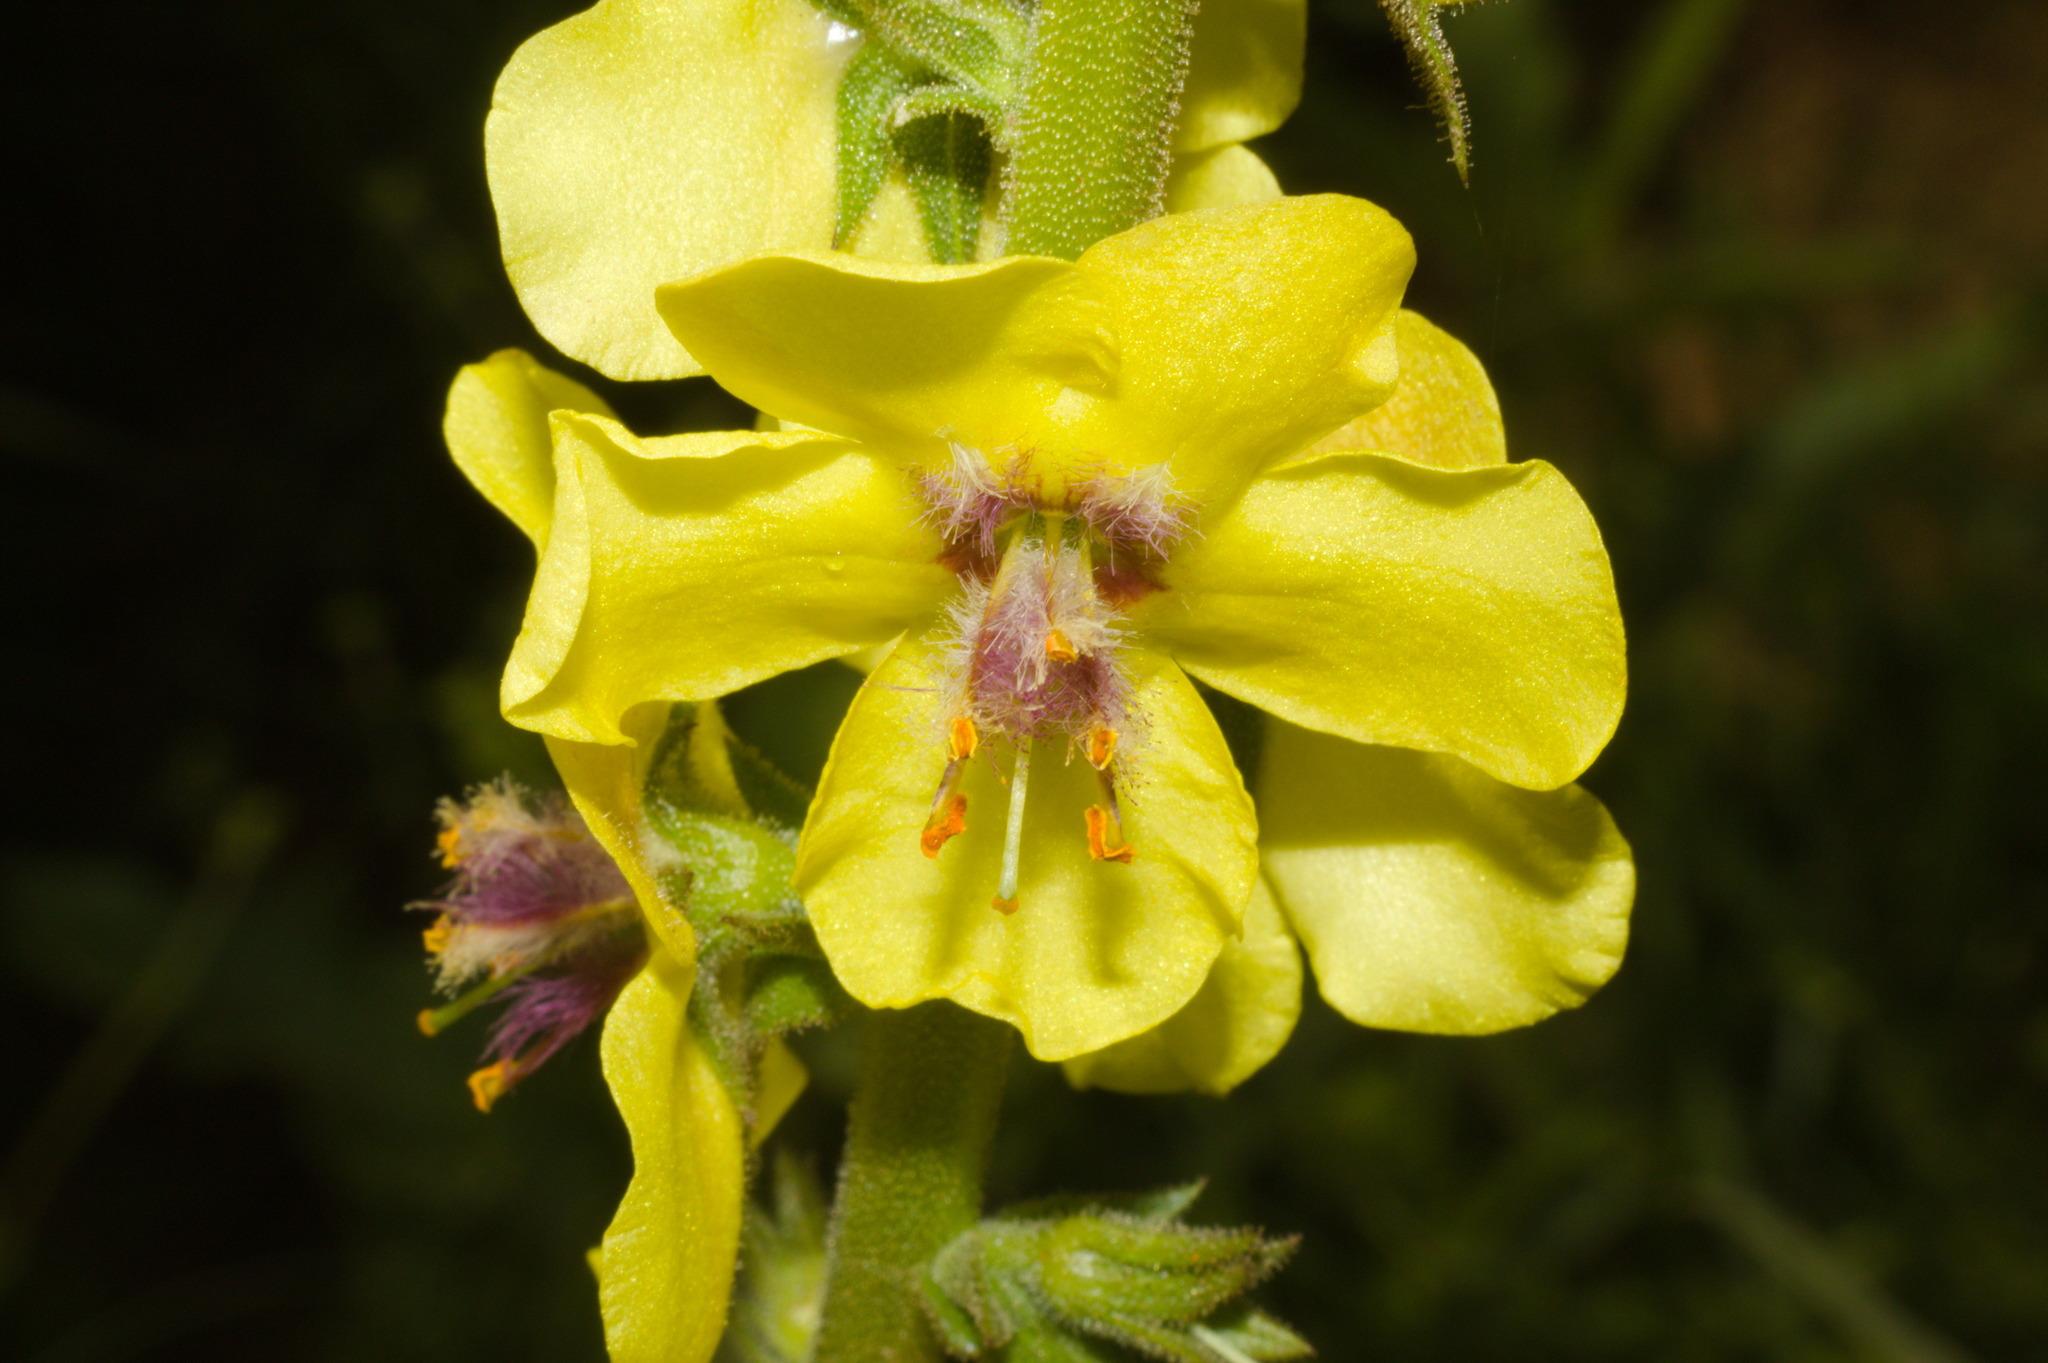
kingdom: Plantae
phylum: Tracheophyta
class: Magnoliopsida
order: Lamiales
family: Scrophulariaceae
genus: Verbascum
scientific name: Verbascum virgatum
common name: Twiggy mullein
